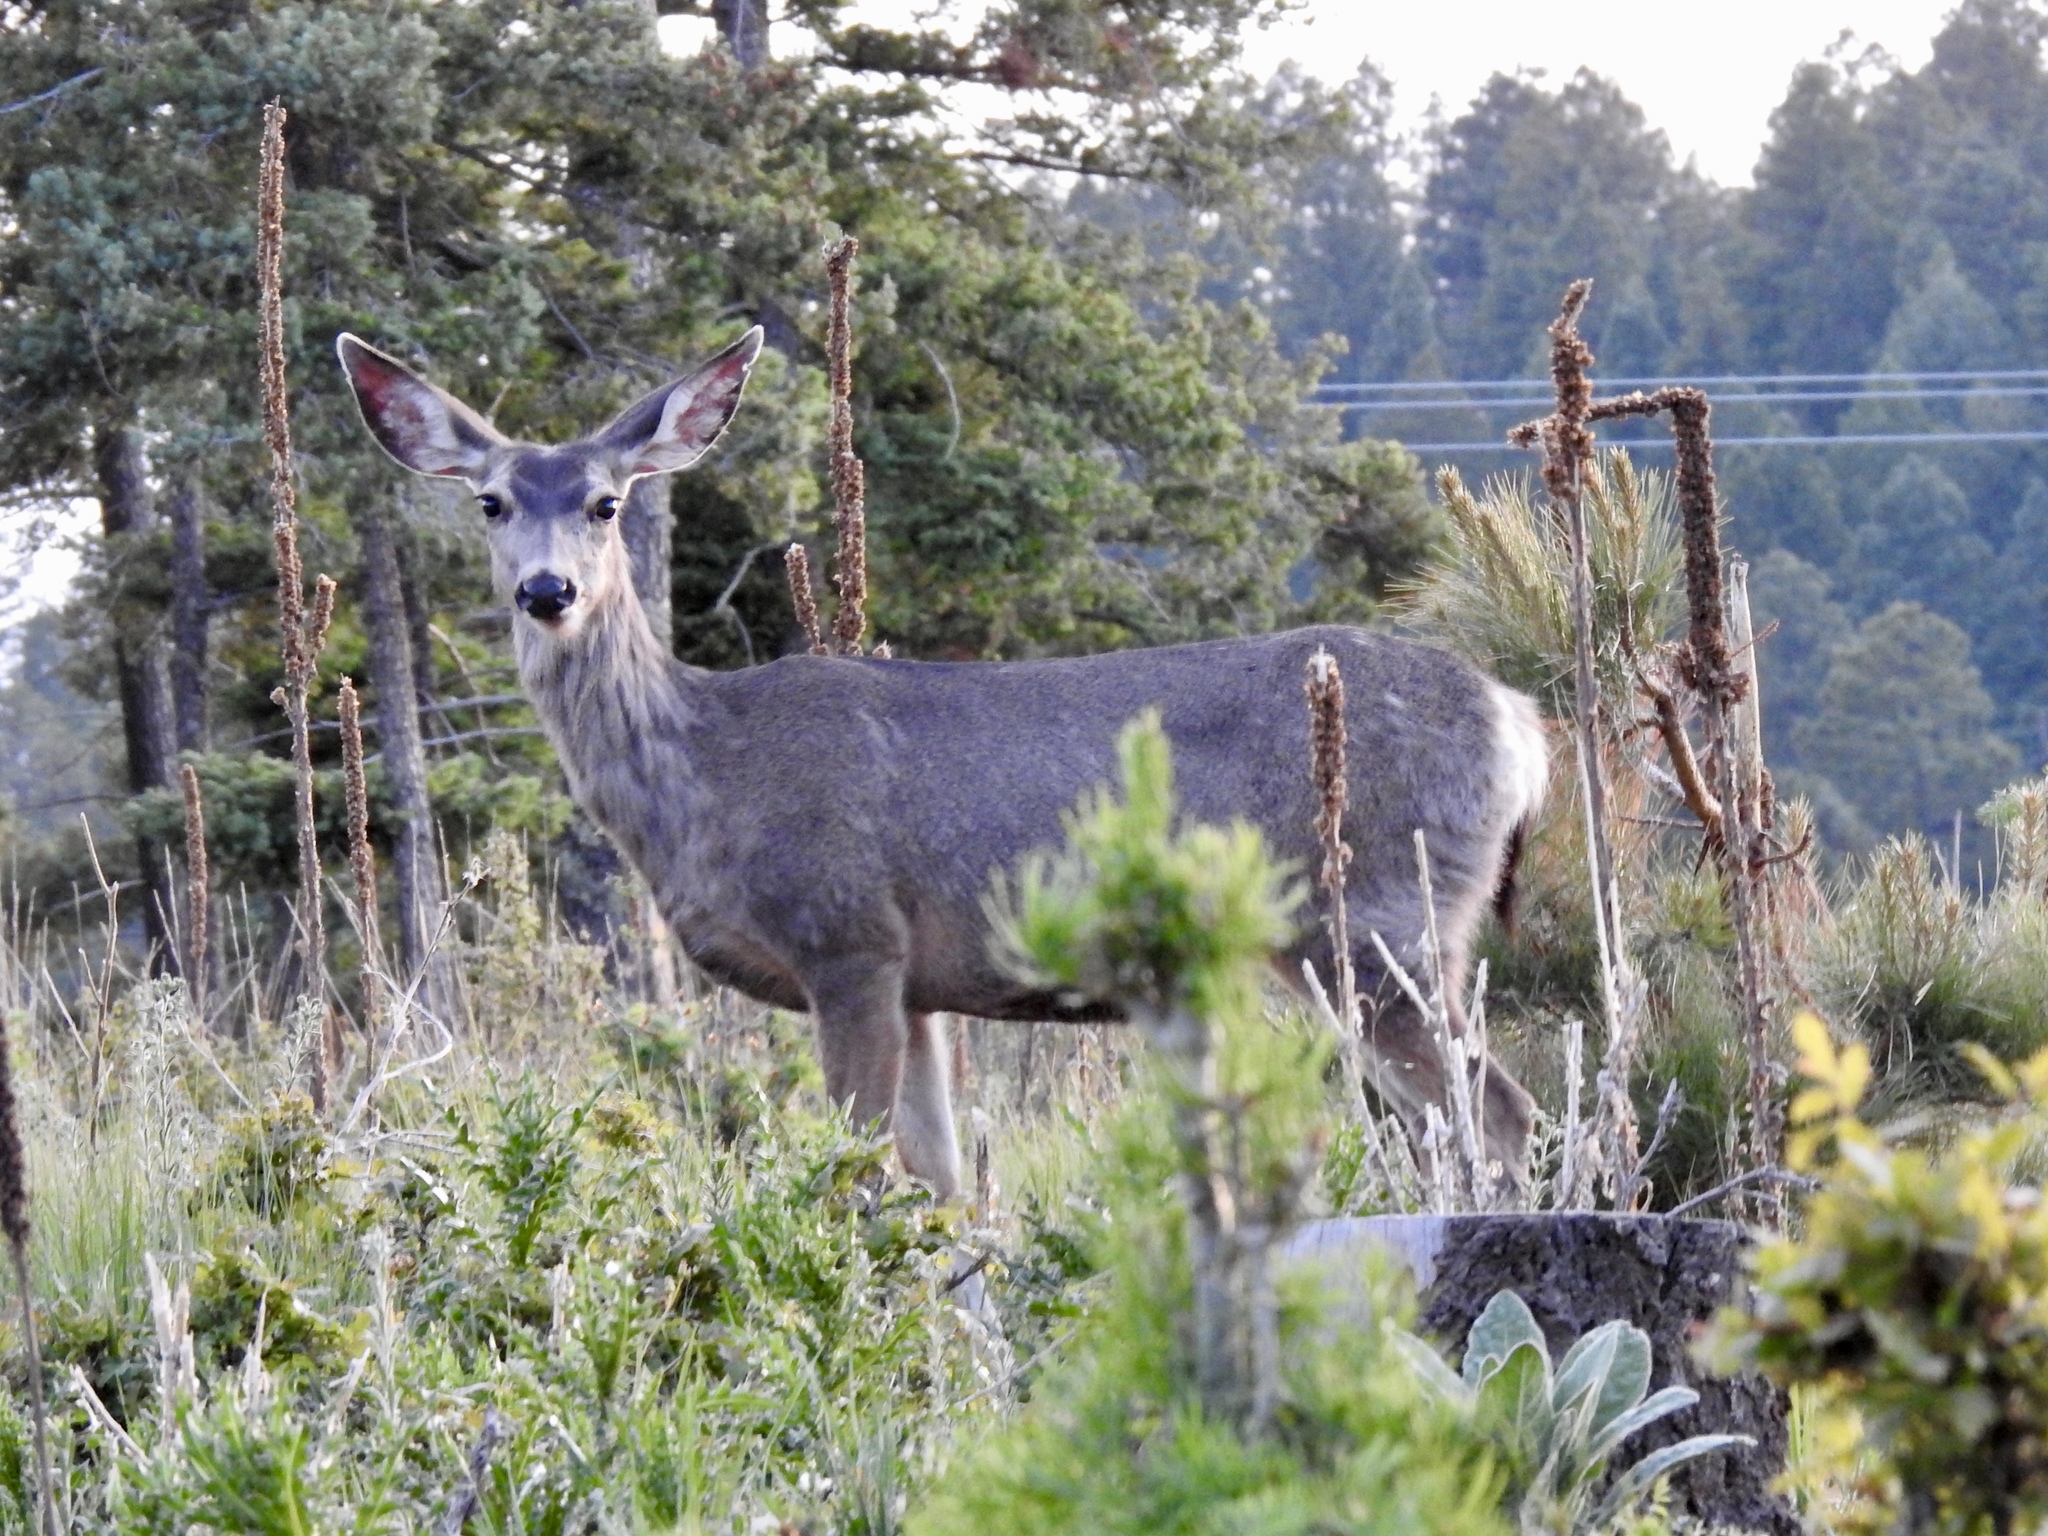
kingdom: Animalia
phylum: Chordata
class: Mammalia
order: Artiodactyla
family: Cervidae
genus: Odocoileus
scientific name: Odocoileus hemionus
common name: Mule deer
